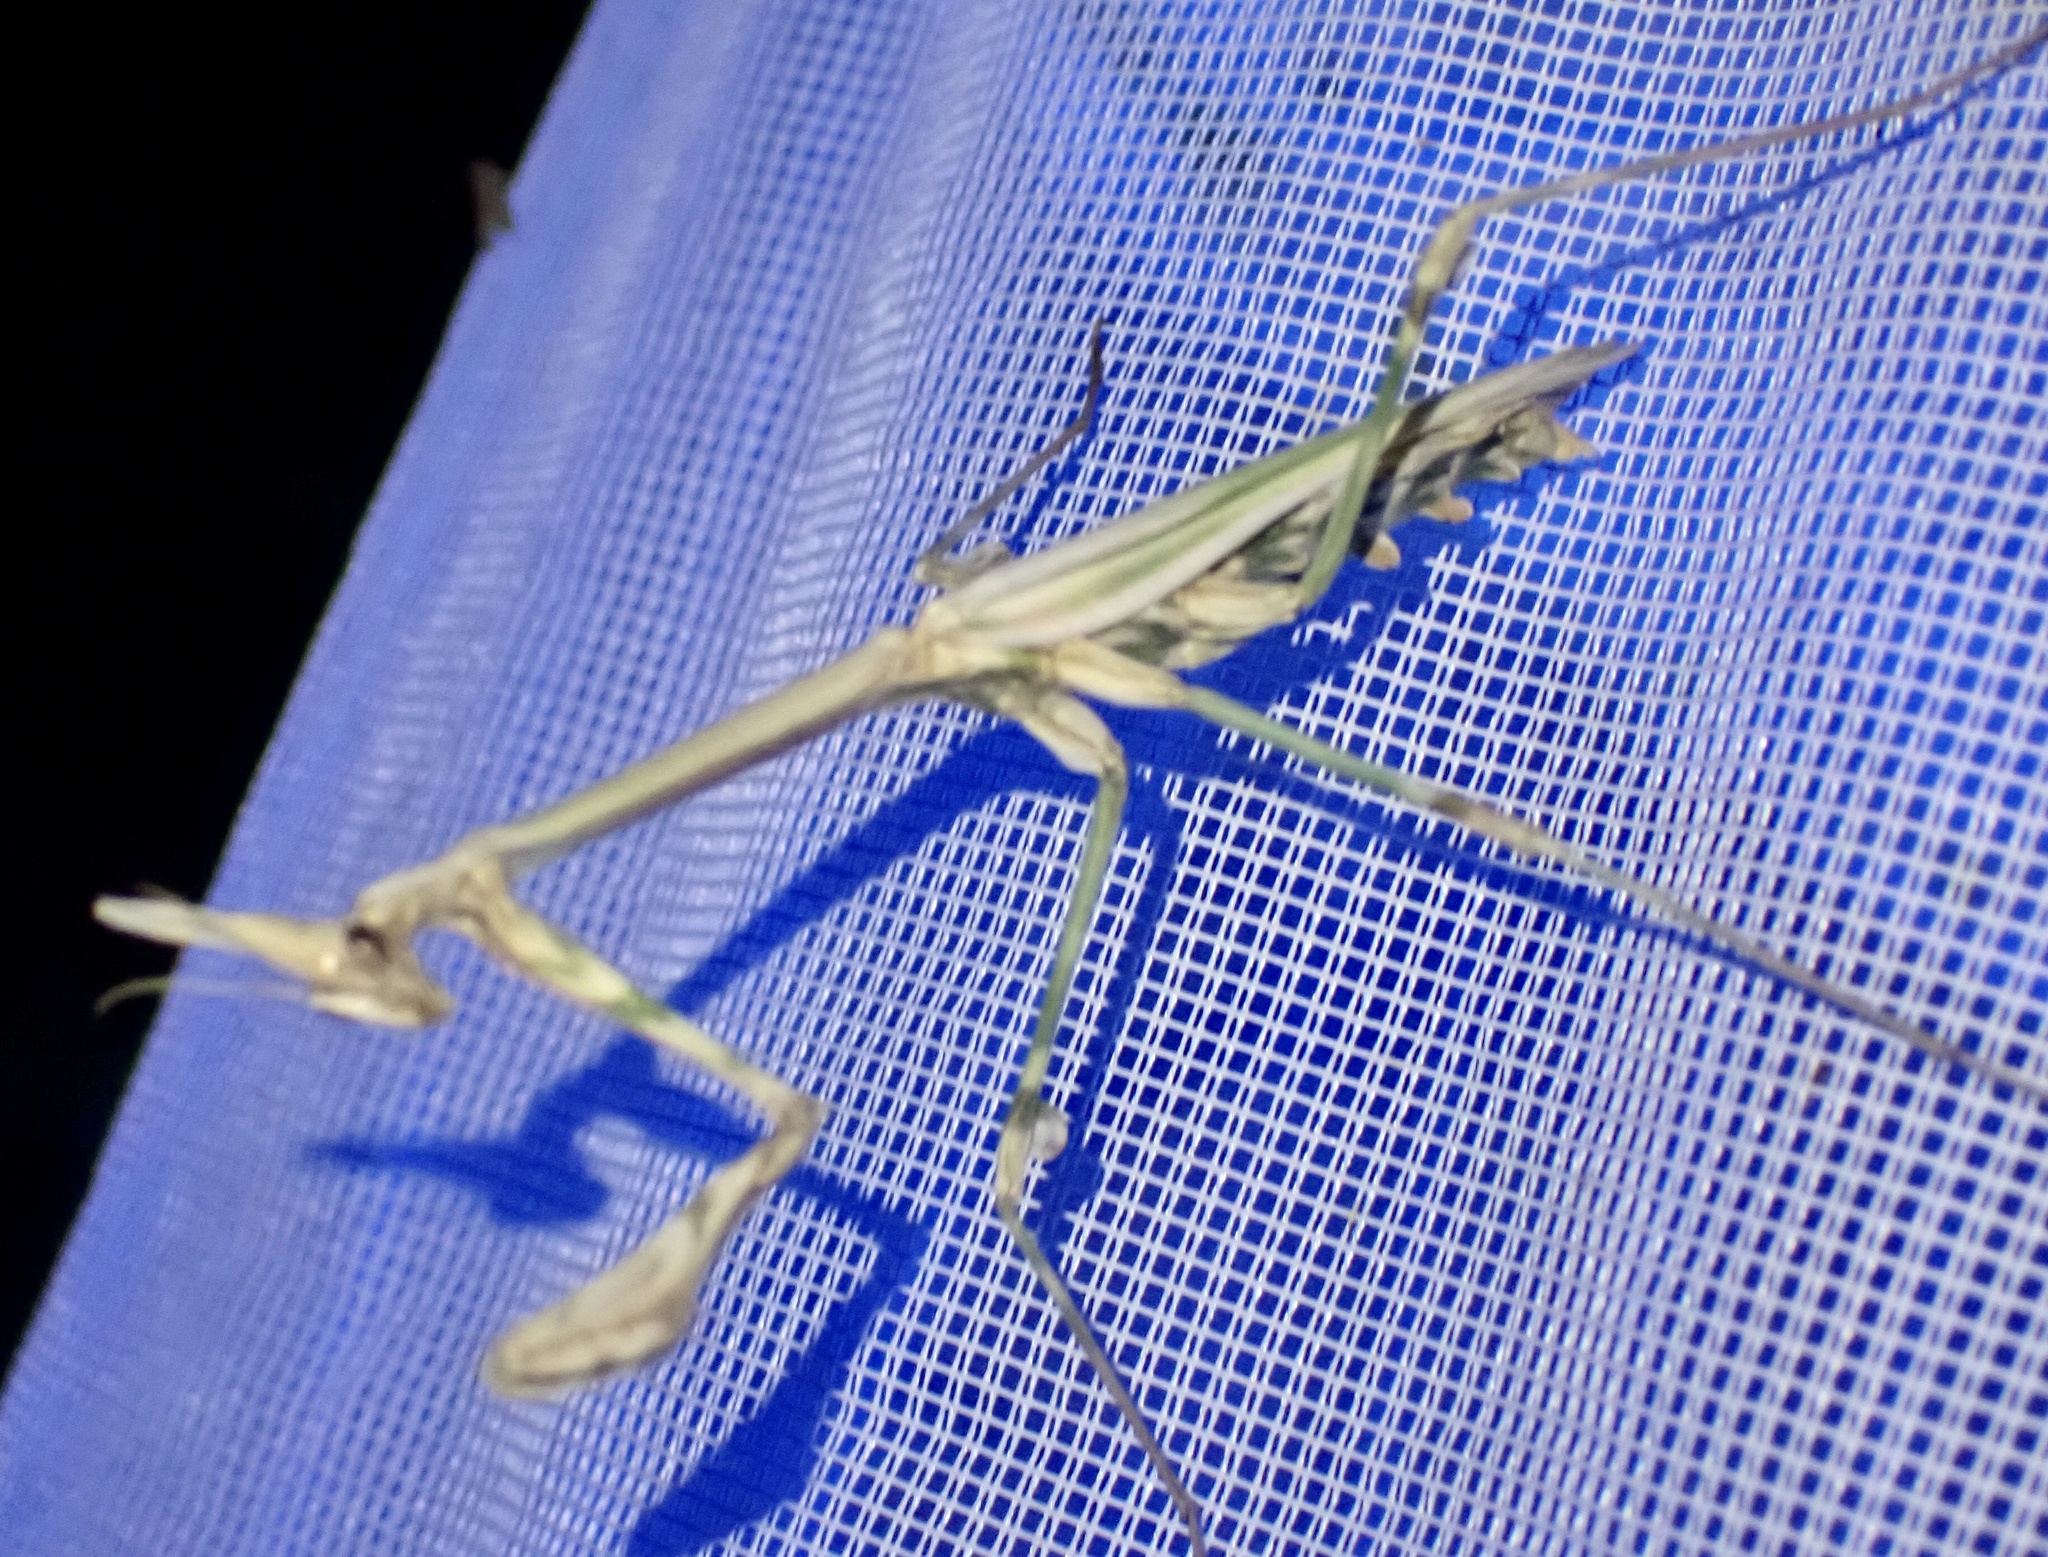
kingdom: Animalia
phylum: Arthropoda
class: Insecta
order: Mantodea
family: Empusidae
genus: Empusa
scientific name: Empusa pennata
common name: Conehead mantis
